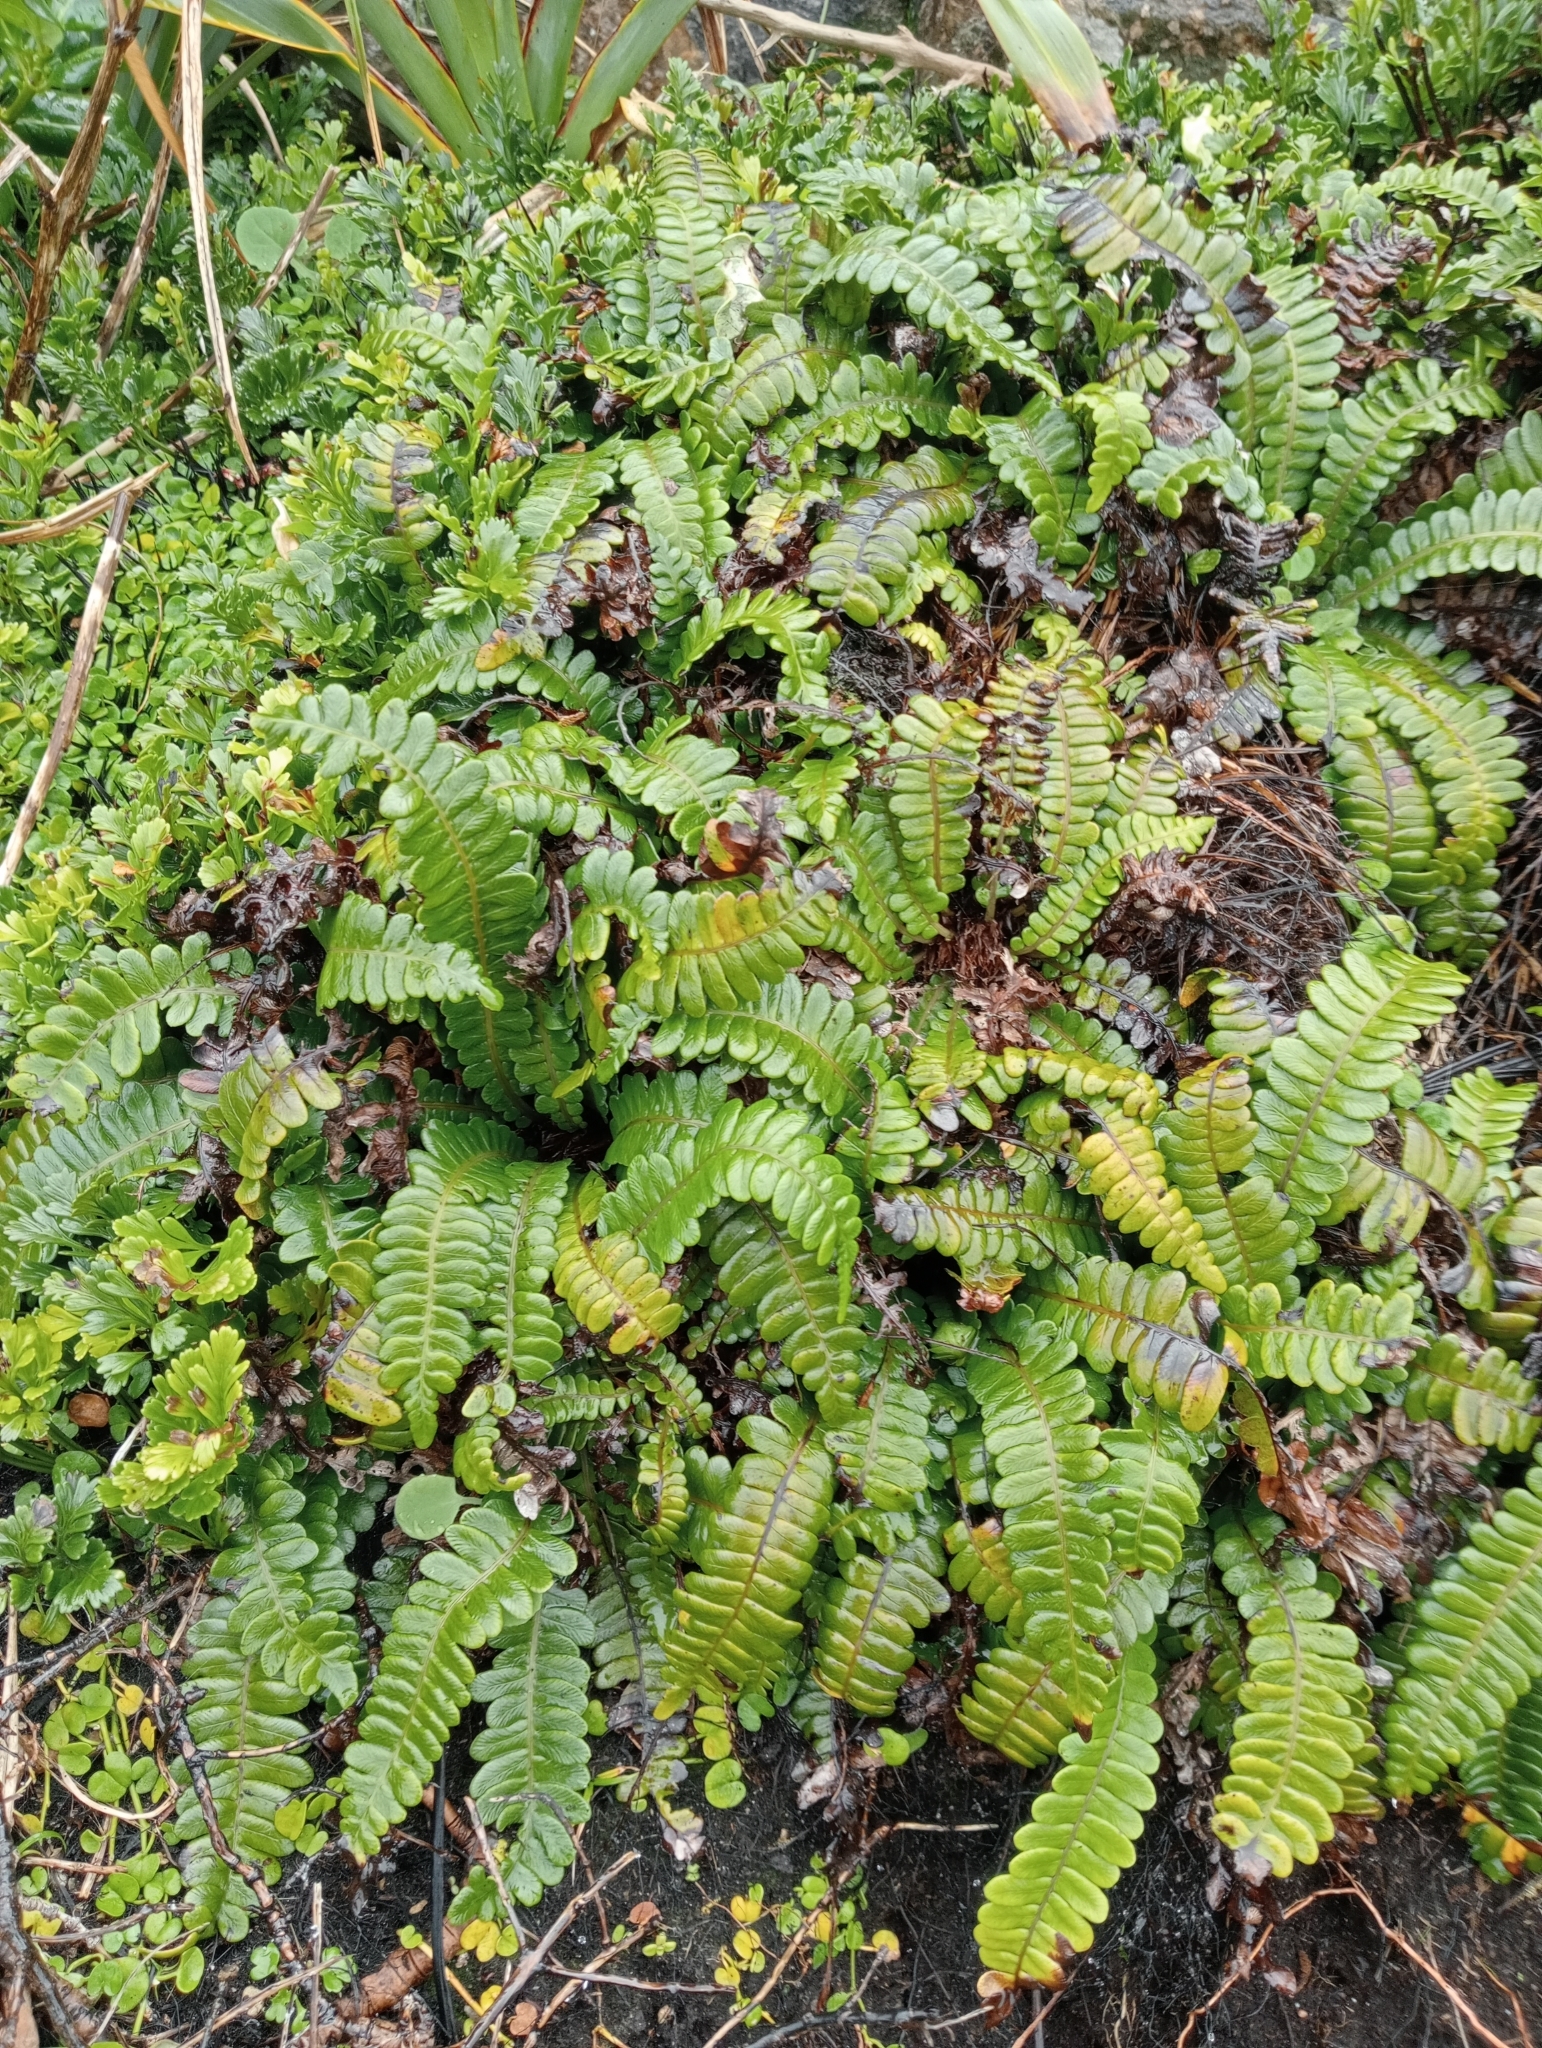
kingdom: Plantae
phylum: Tracheophyta
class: Polypodiopsida
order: Polypodiales
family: Blechnaceae
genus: Austroblechnum
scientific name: Austroblechnum durum
